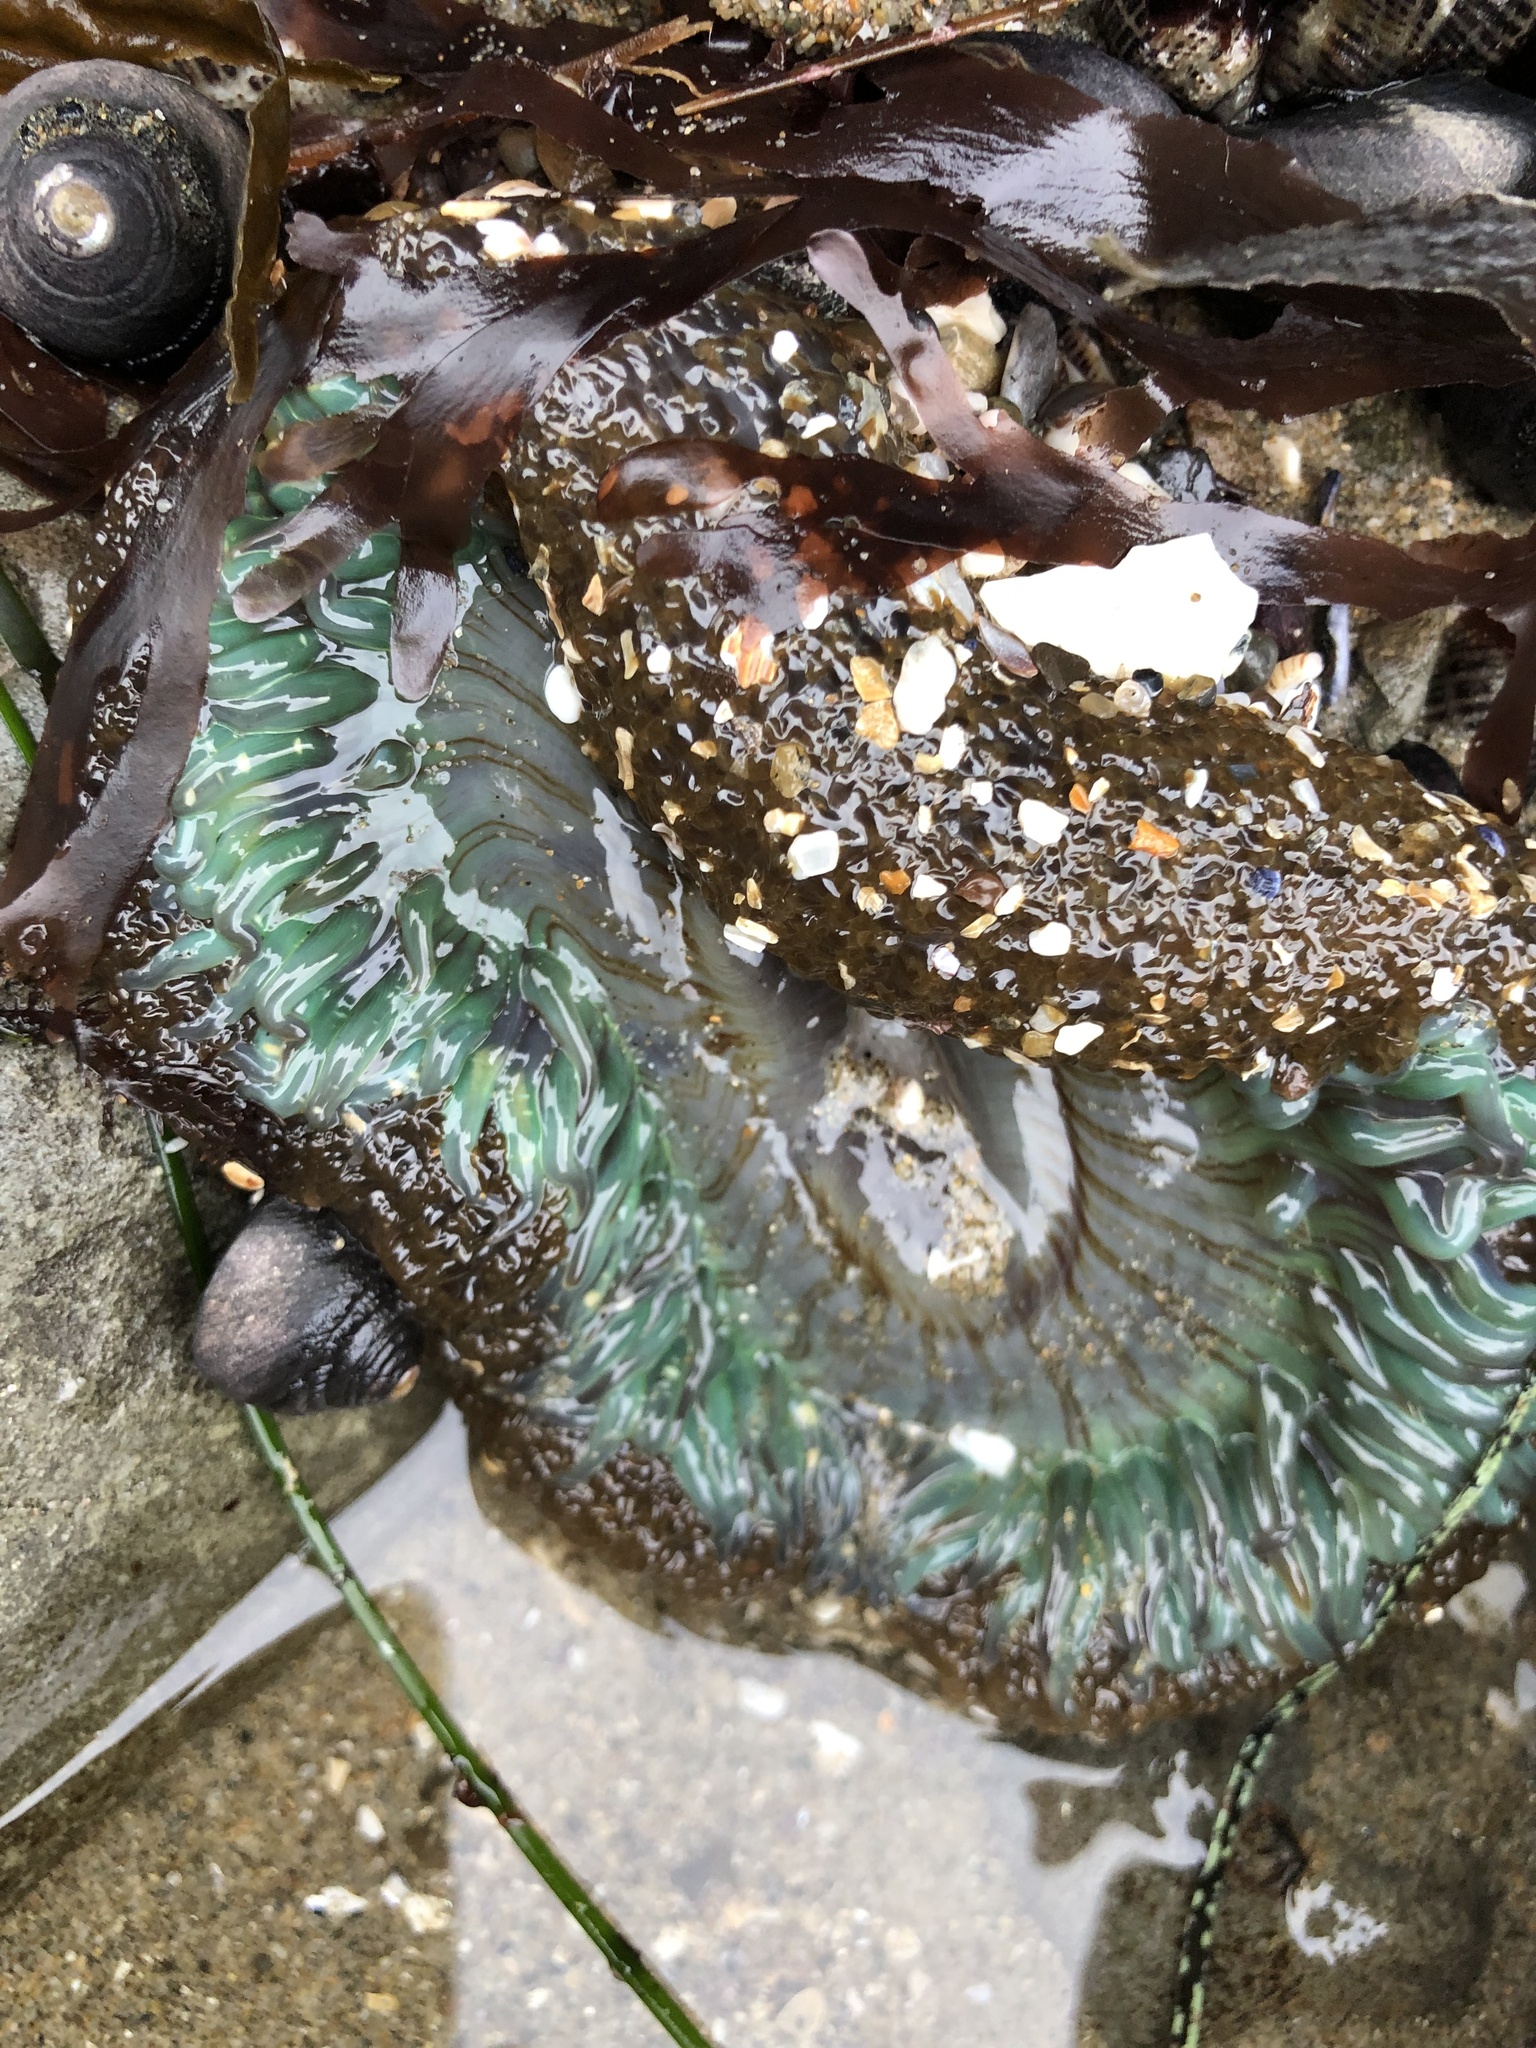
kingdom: Animalia
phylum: Cnidaria
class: Anthozoa
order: Actiniaria
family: Actiniidae
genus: Anthopleura
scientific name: Anthopleura sola
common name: Sun anemone
